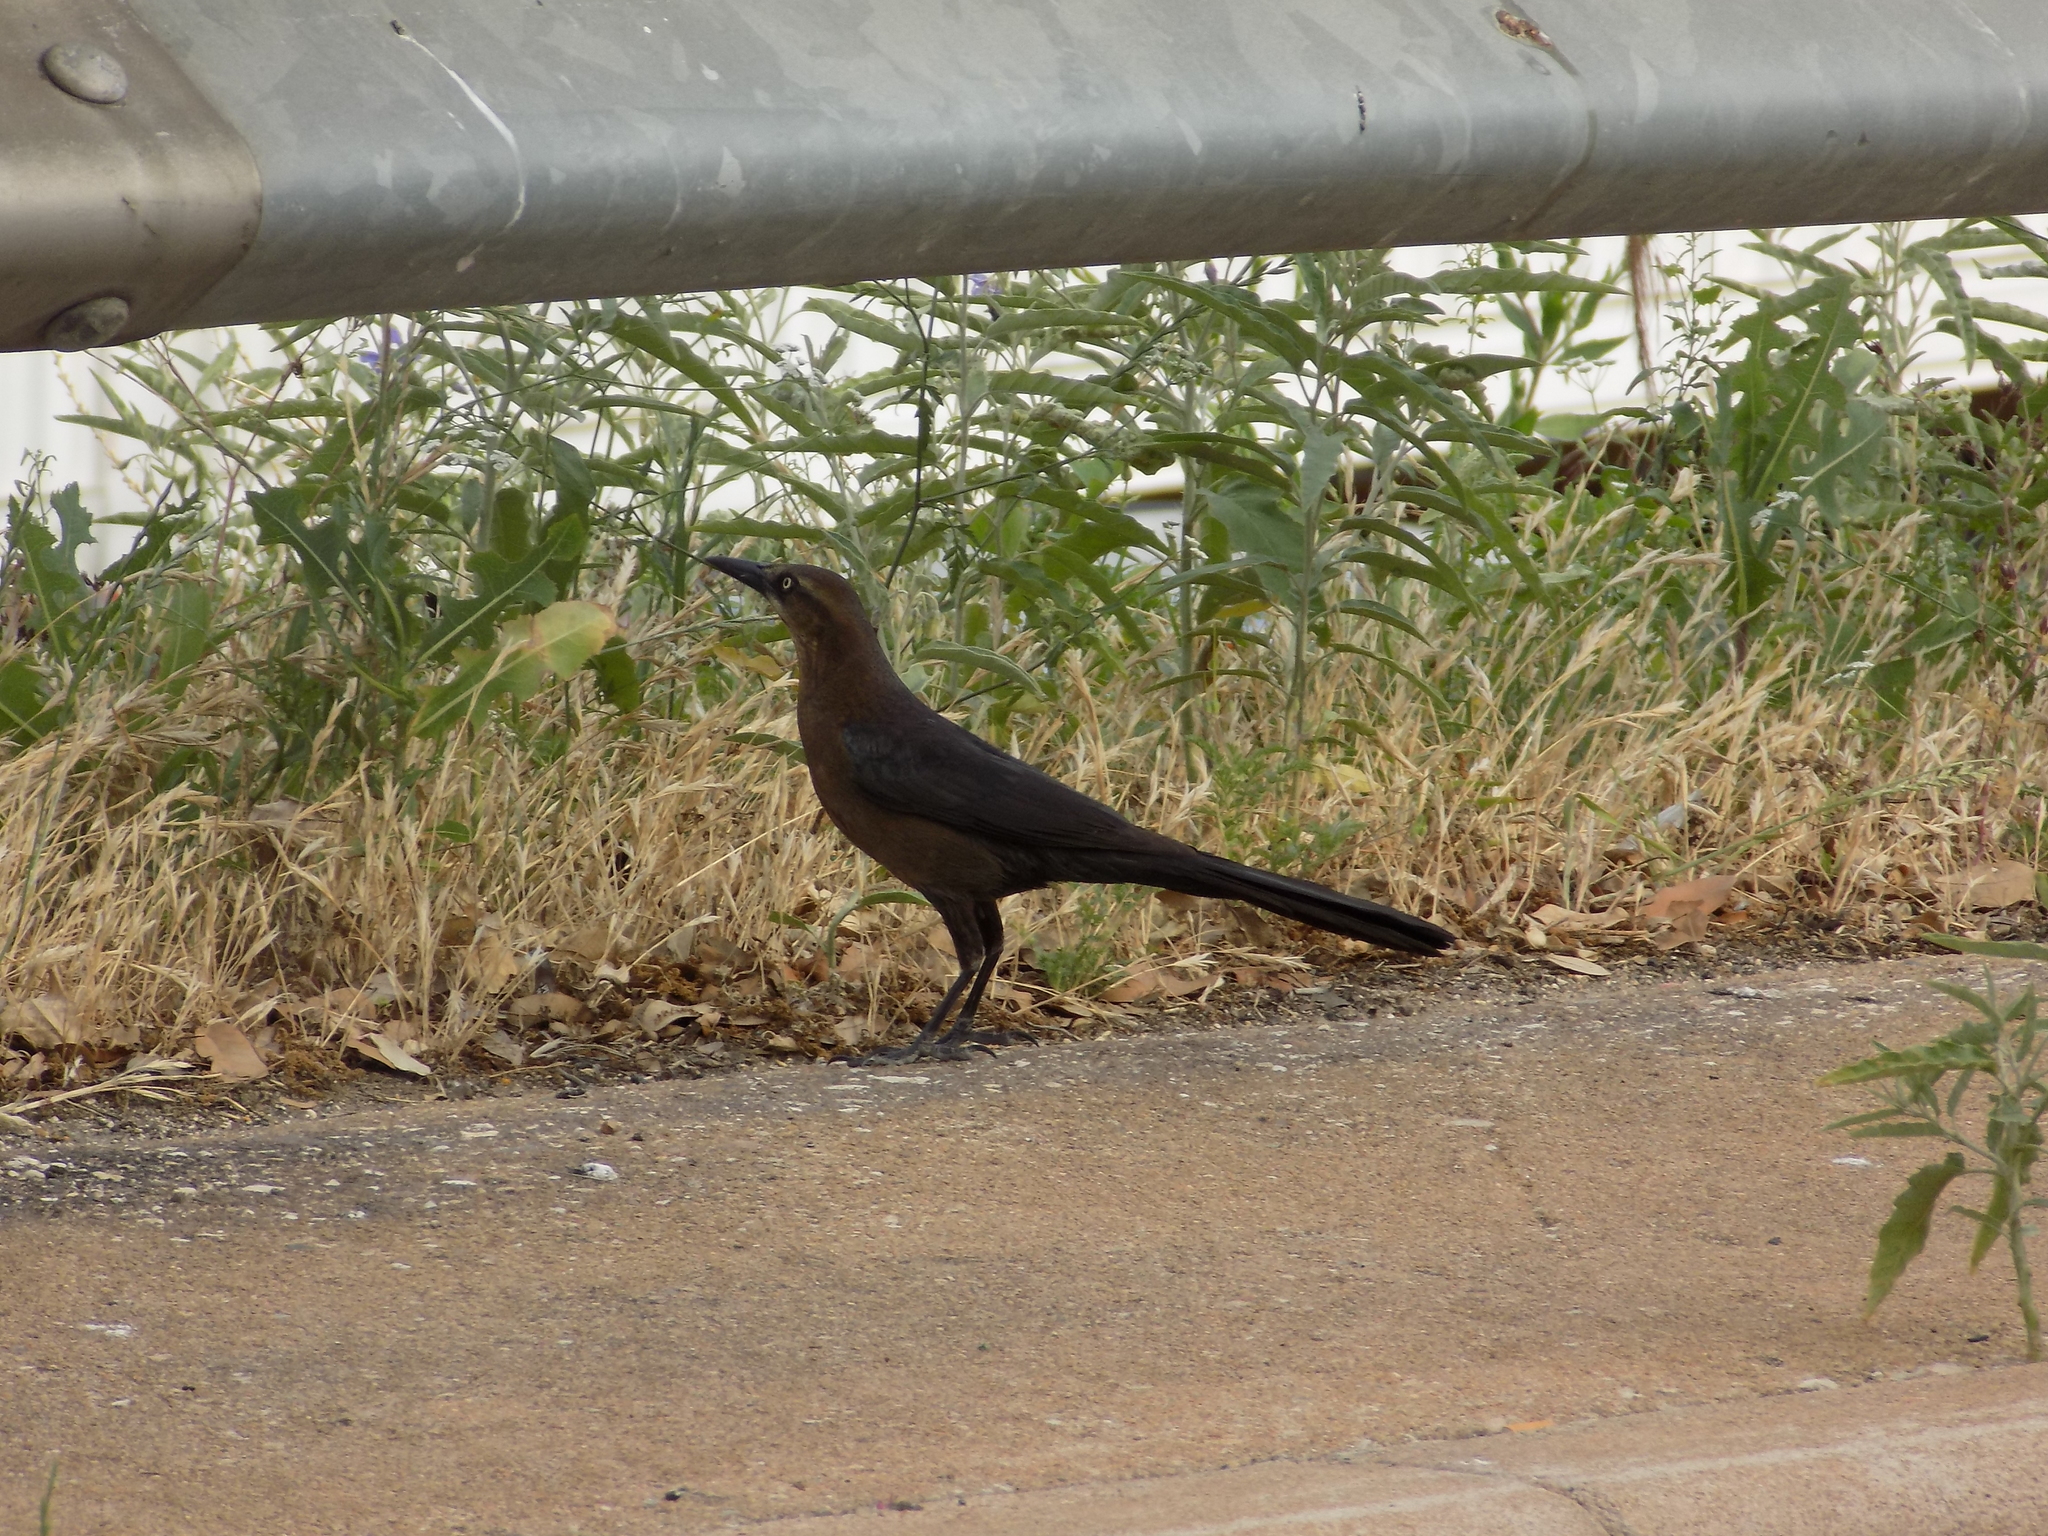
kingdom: Animalia
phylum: Chordata
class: Aves
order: Passeriformes
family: Icteridae
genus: Quiscalus
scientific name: Quiscalus mexicanus
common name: Great-tailed grackle
